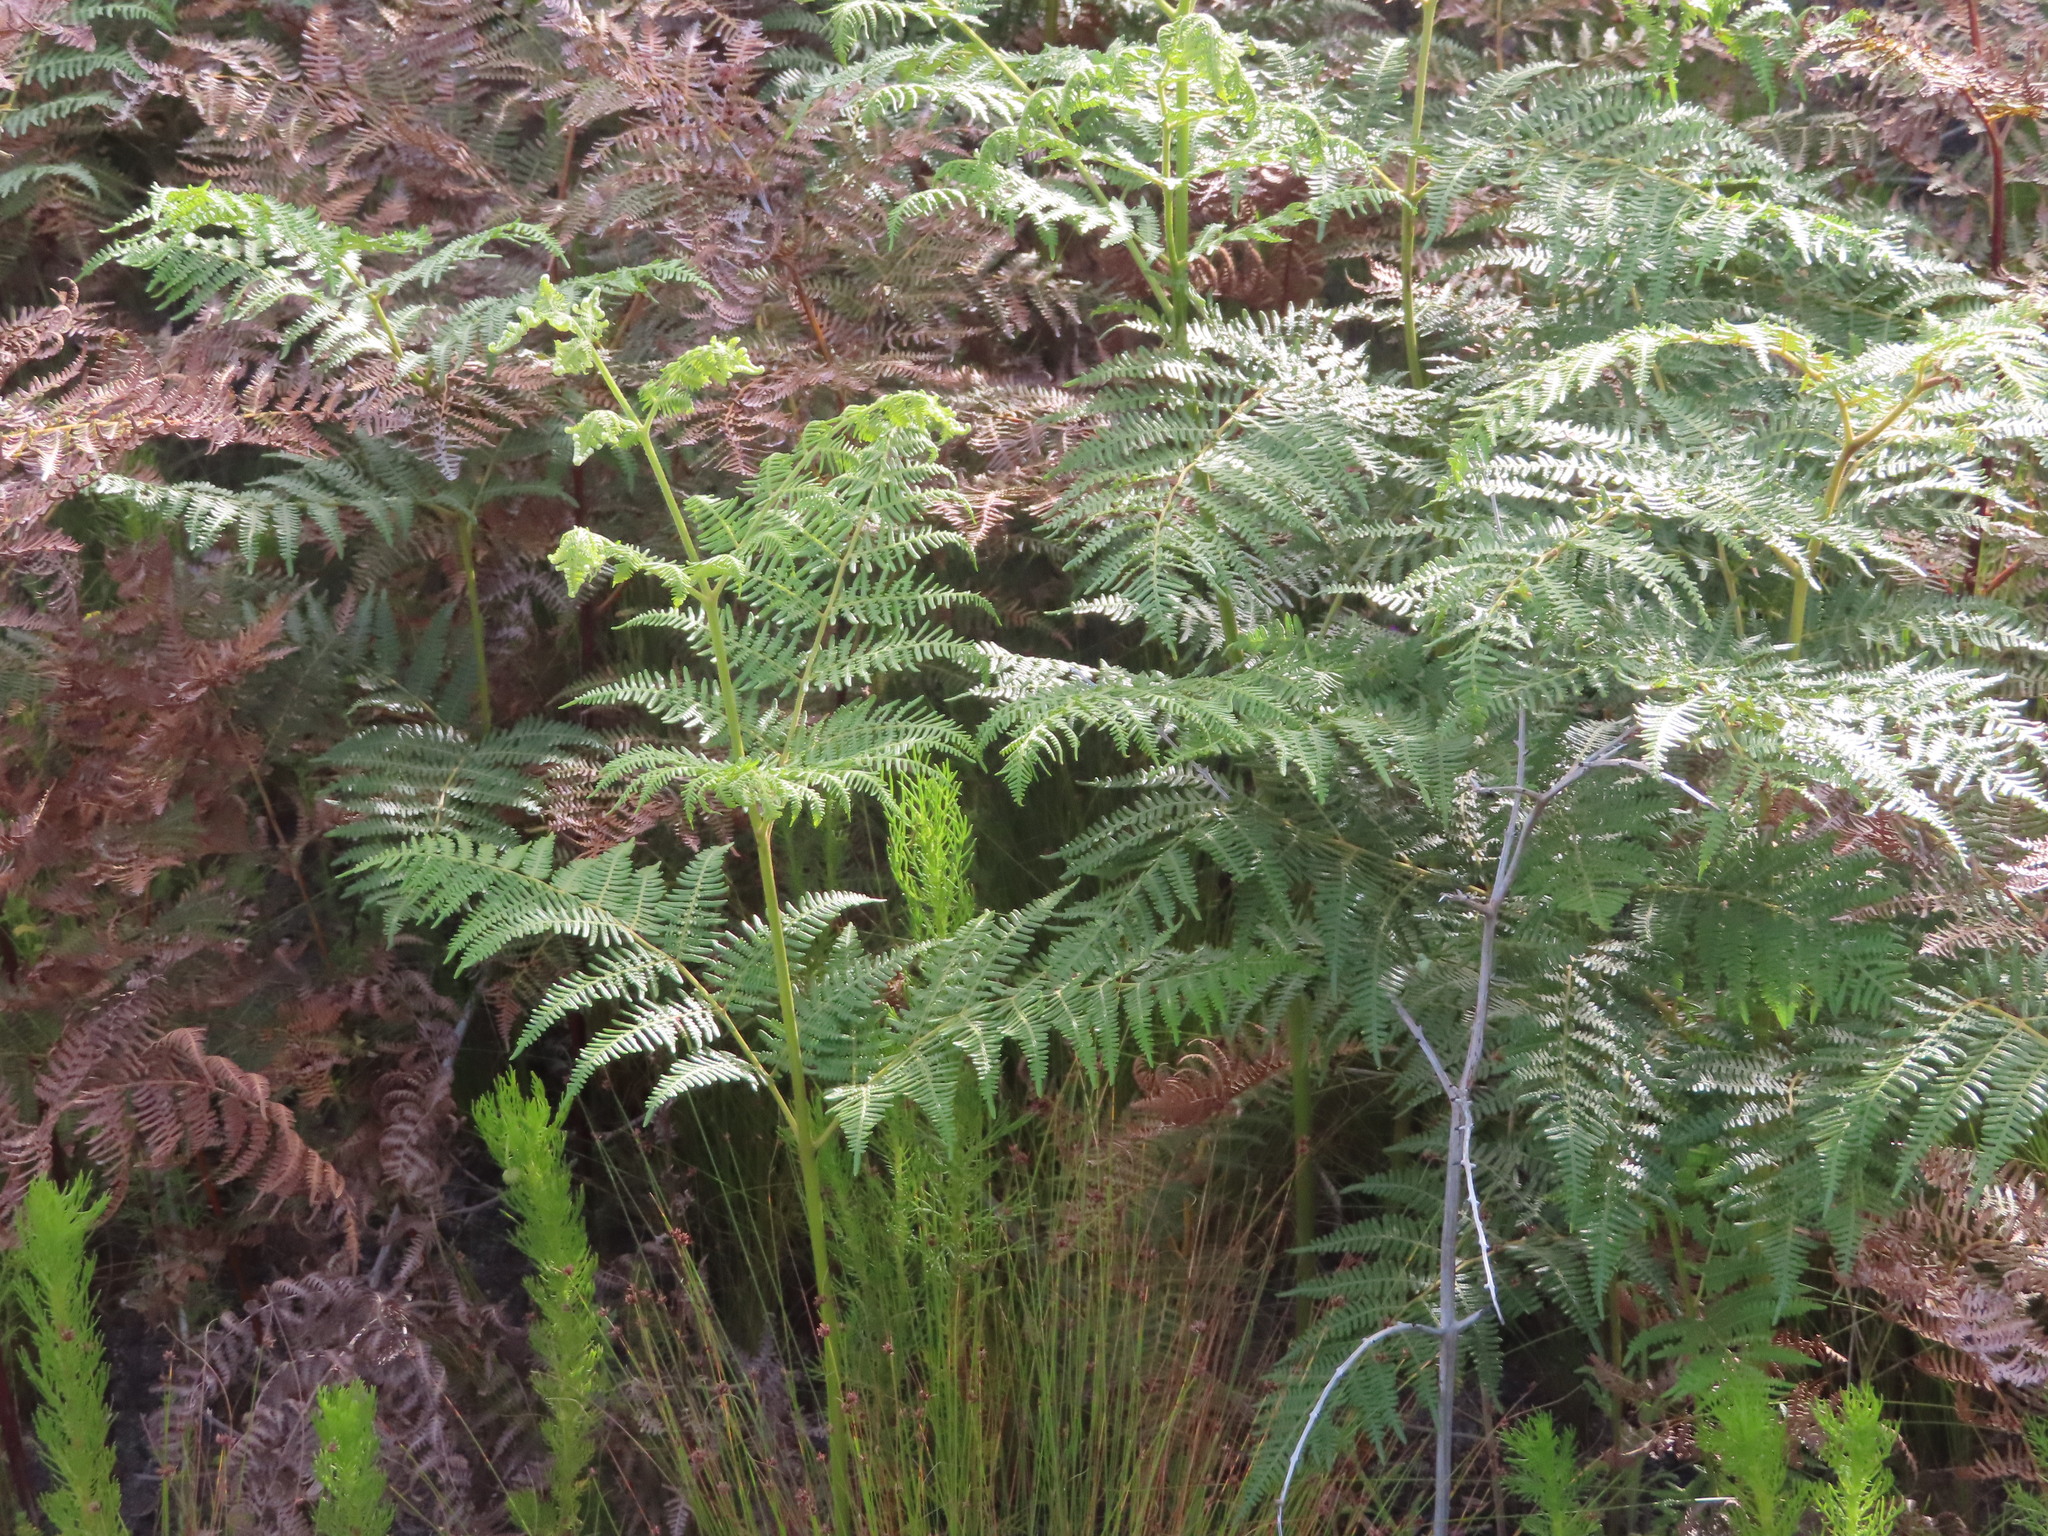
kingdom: Plantae
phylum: Tracheophyta
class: Polypodiopsida
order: Polypodiales
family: Dennstaedtiaceae
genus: Pteridium
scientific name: Pteridium aquilinum
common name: Bracken
